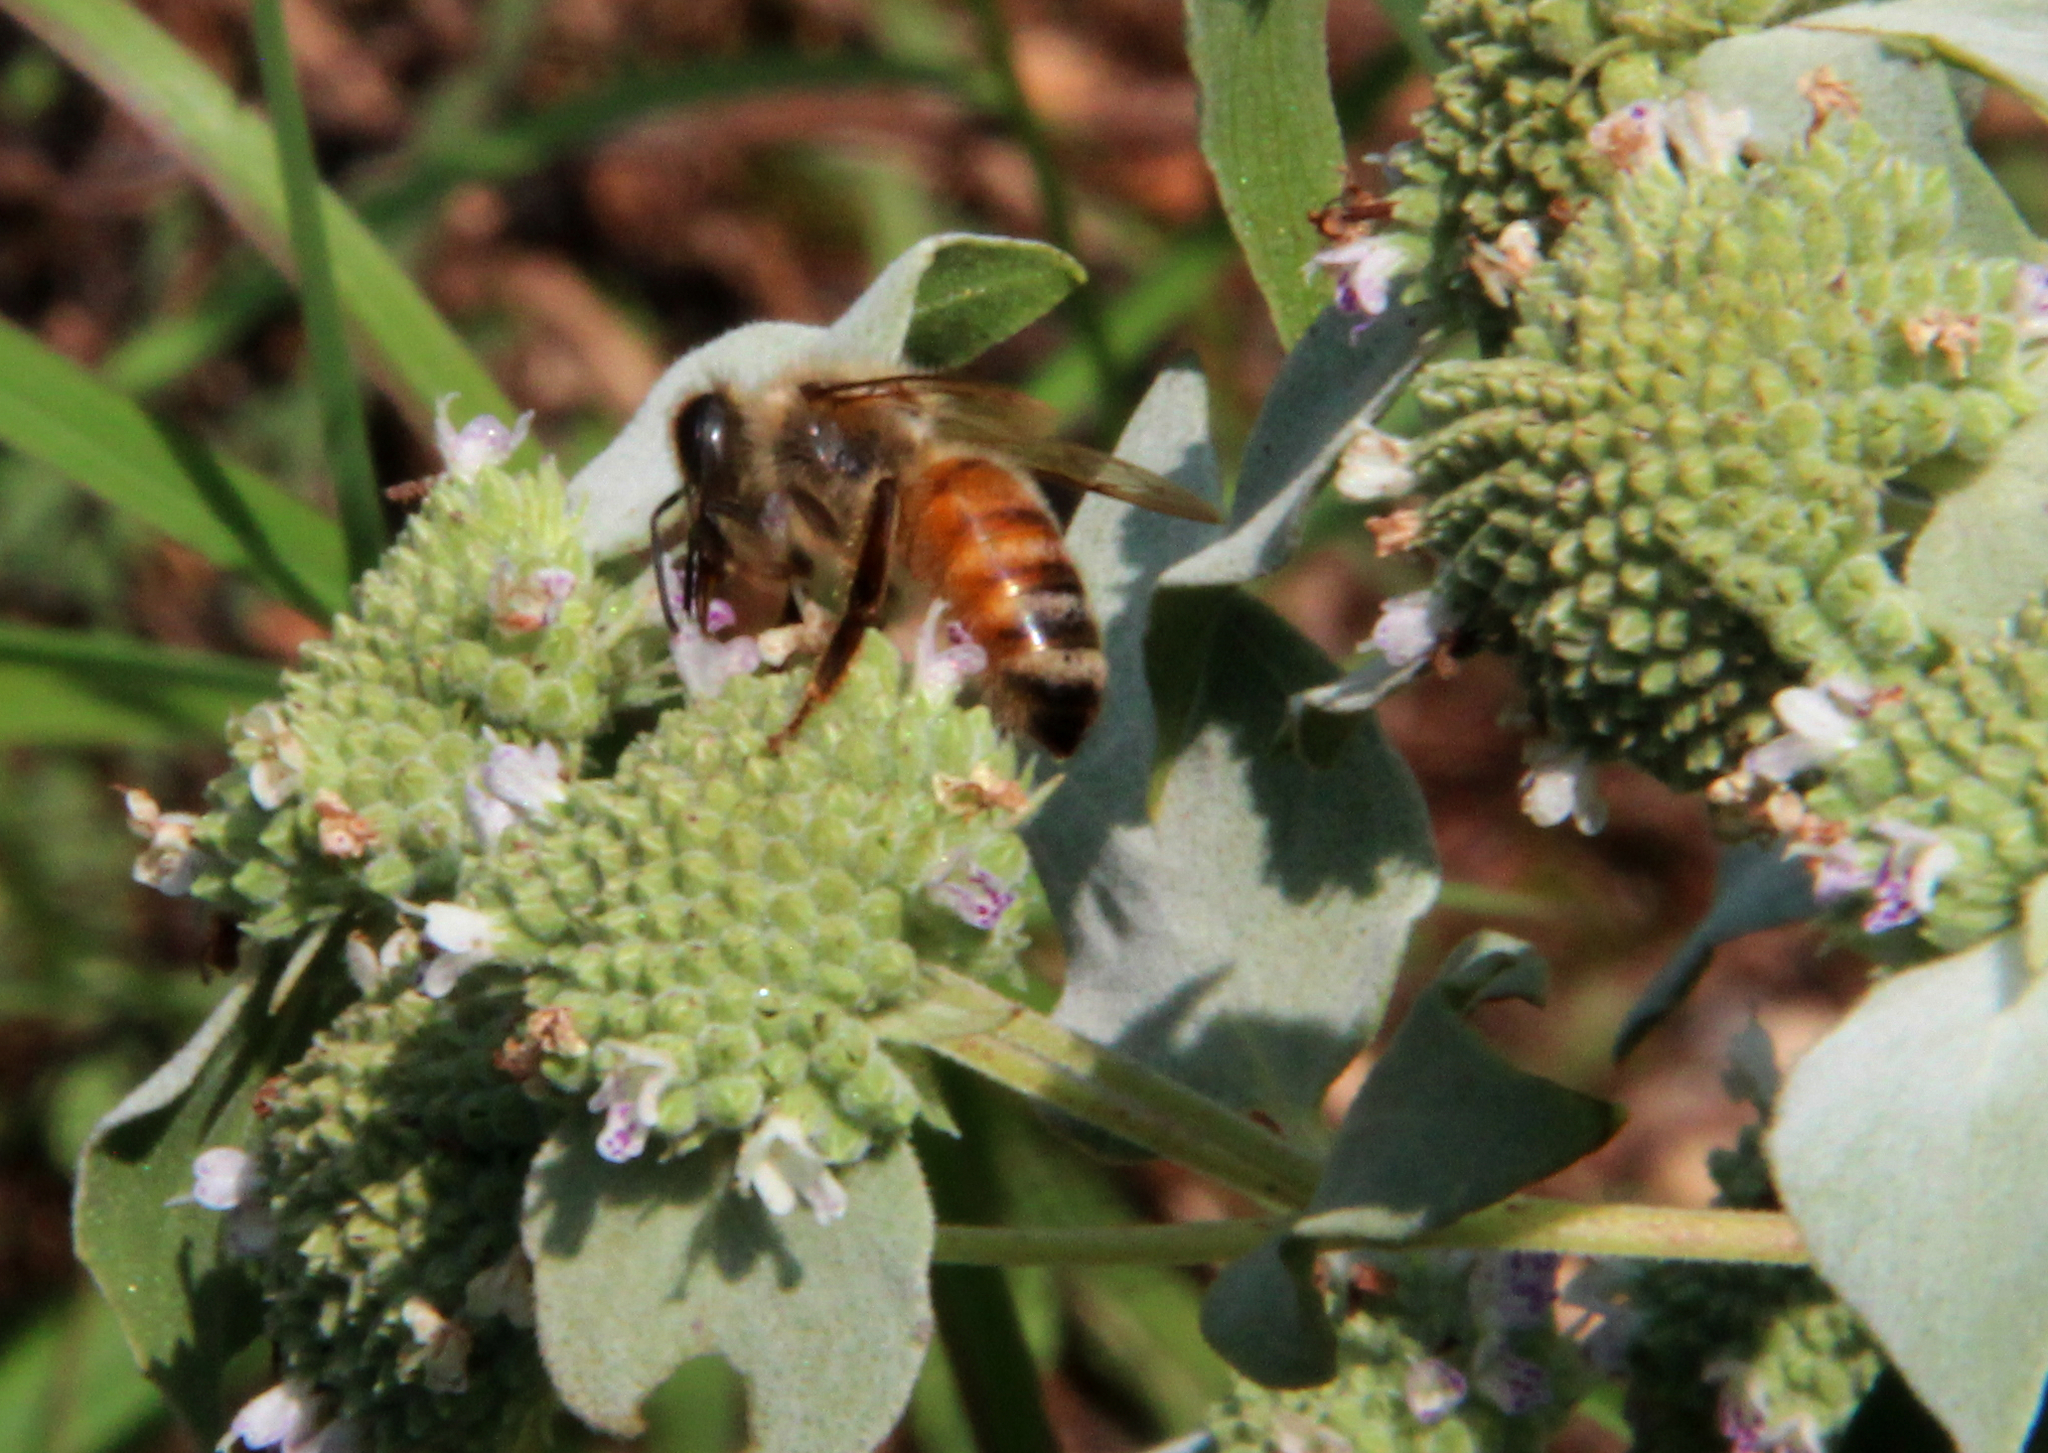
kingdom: Animalia
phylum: Arthropoda
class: Insecta
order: Hymenoptera
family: Apidae
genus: Apis
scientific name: Apis mellifera
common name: Honey bee
